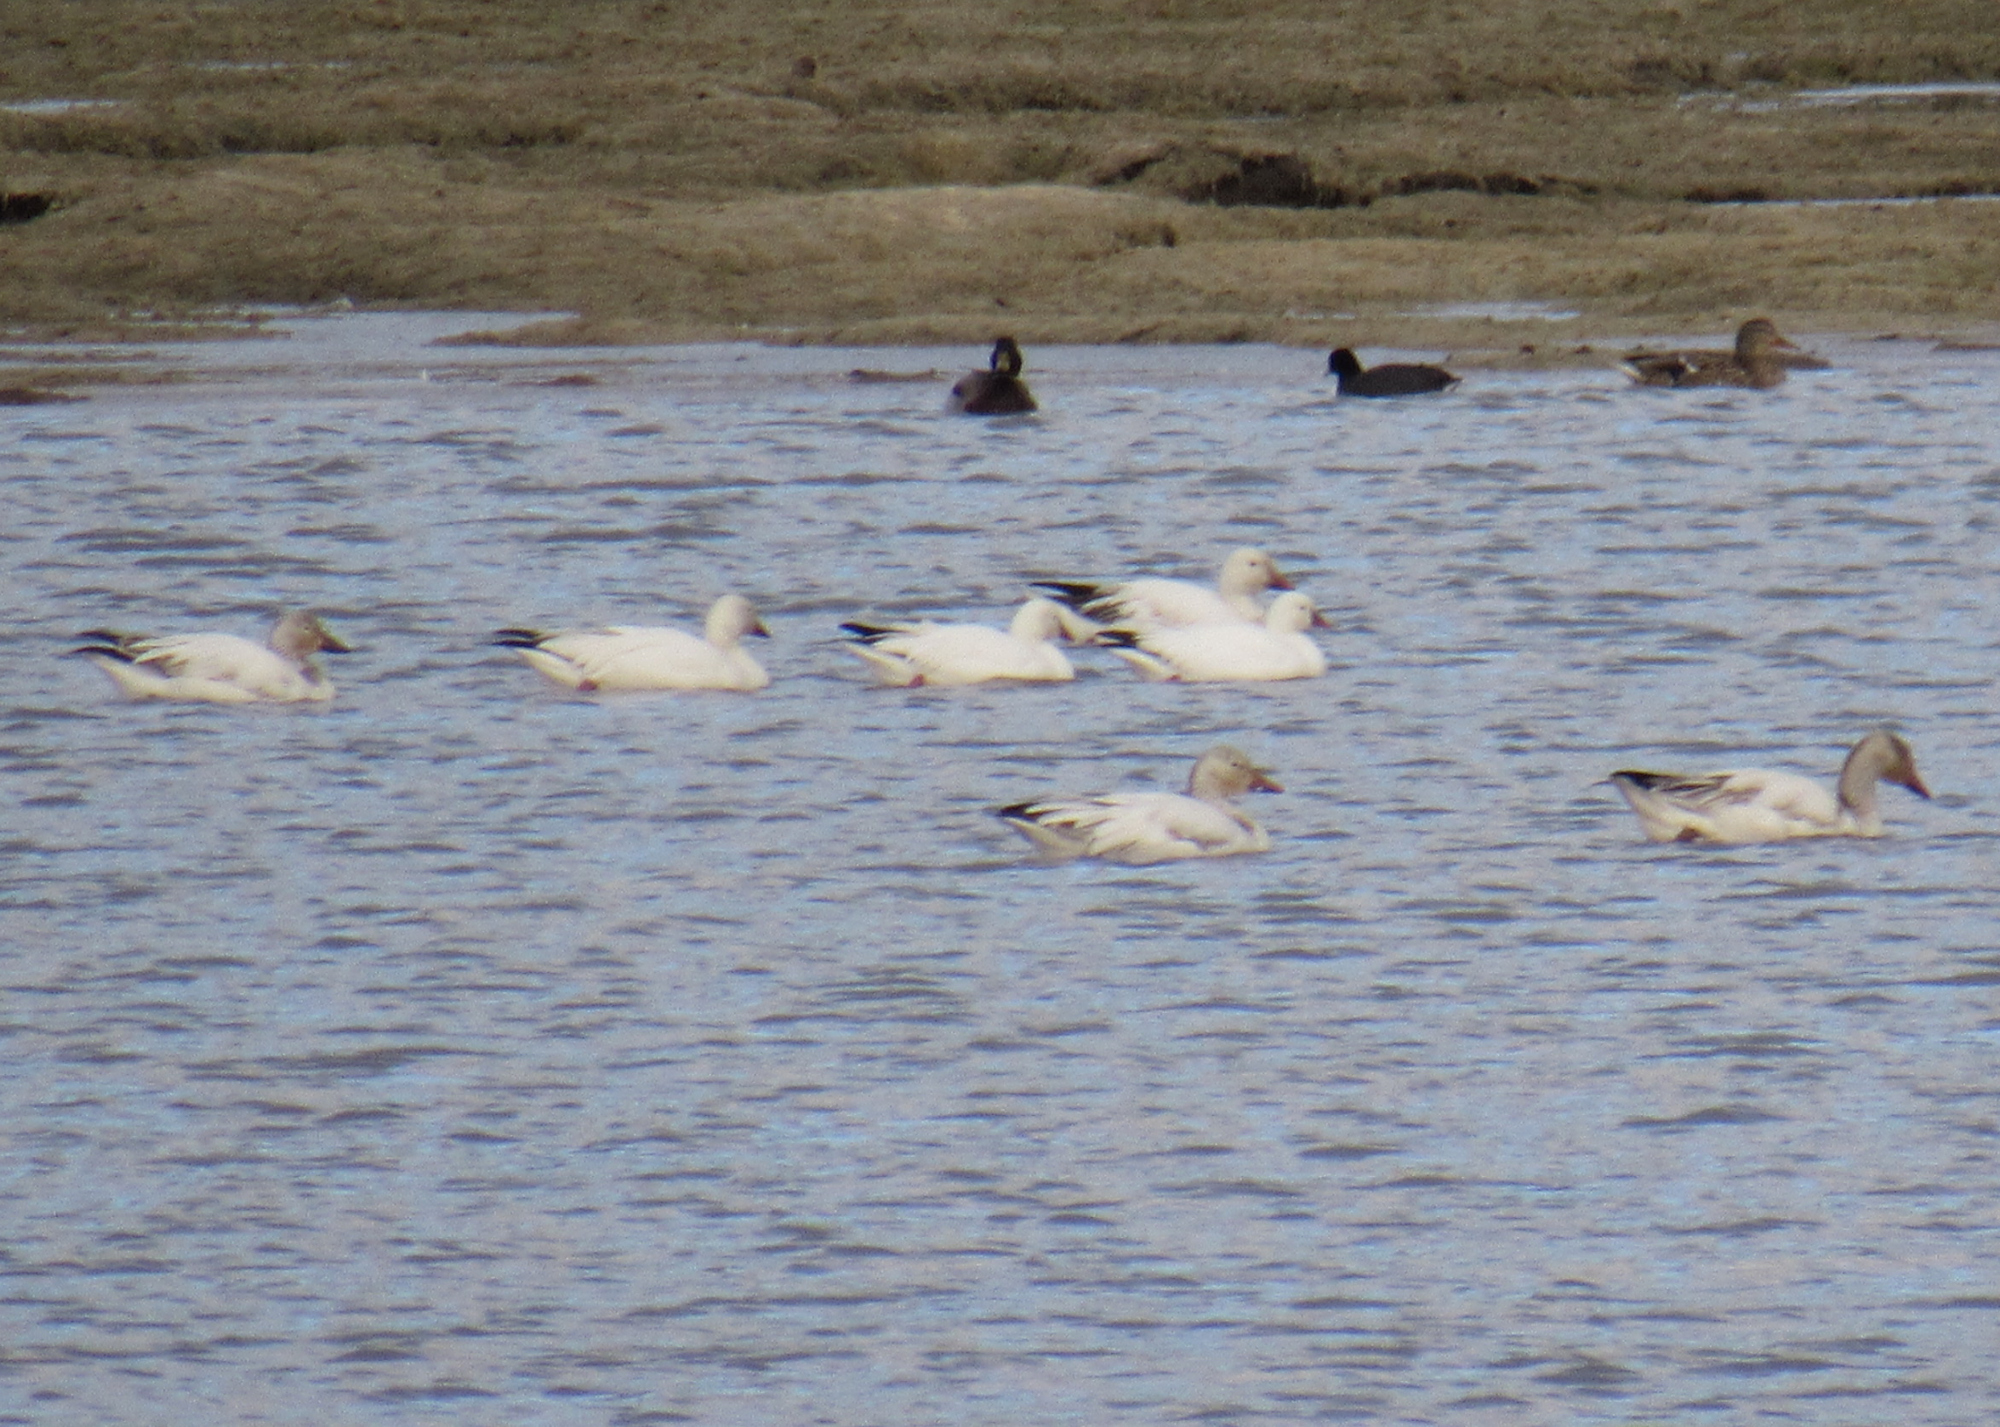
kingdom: Animalia
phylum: Chordata
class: Aves
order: Anseriformes
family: Anatidae
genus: Anser
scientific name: Anser caerulescens
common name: Snow goose
